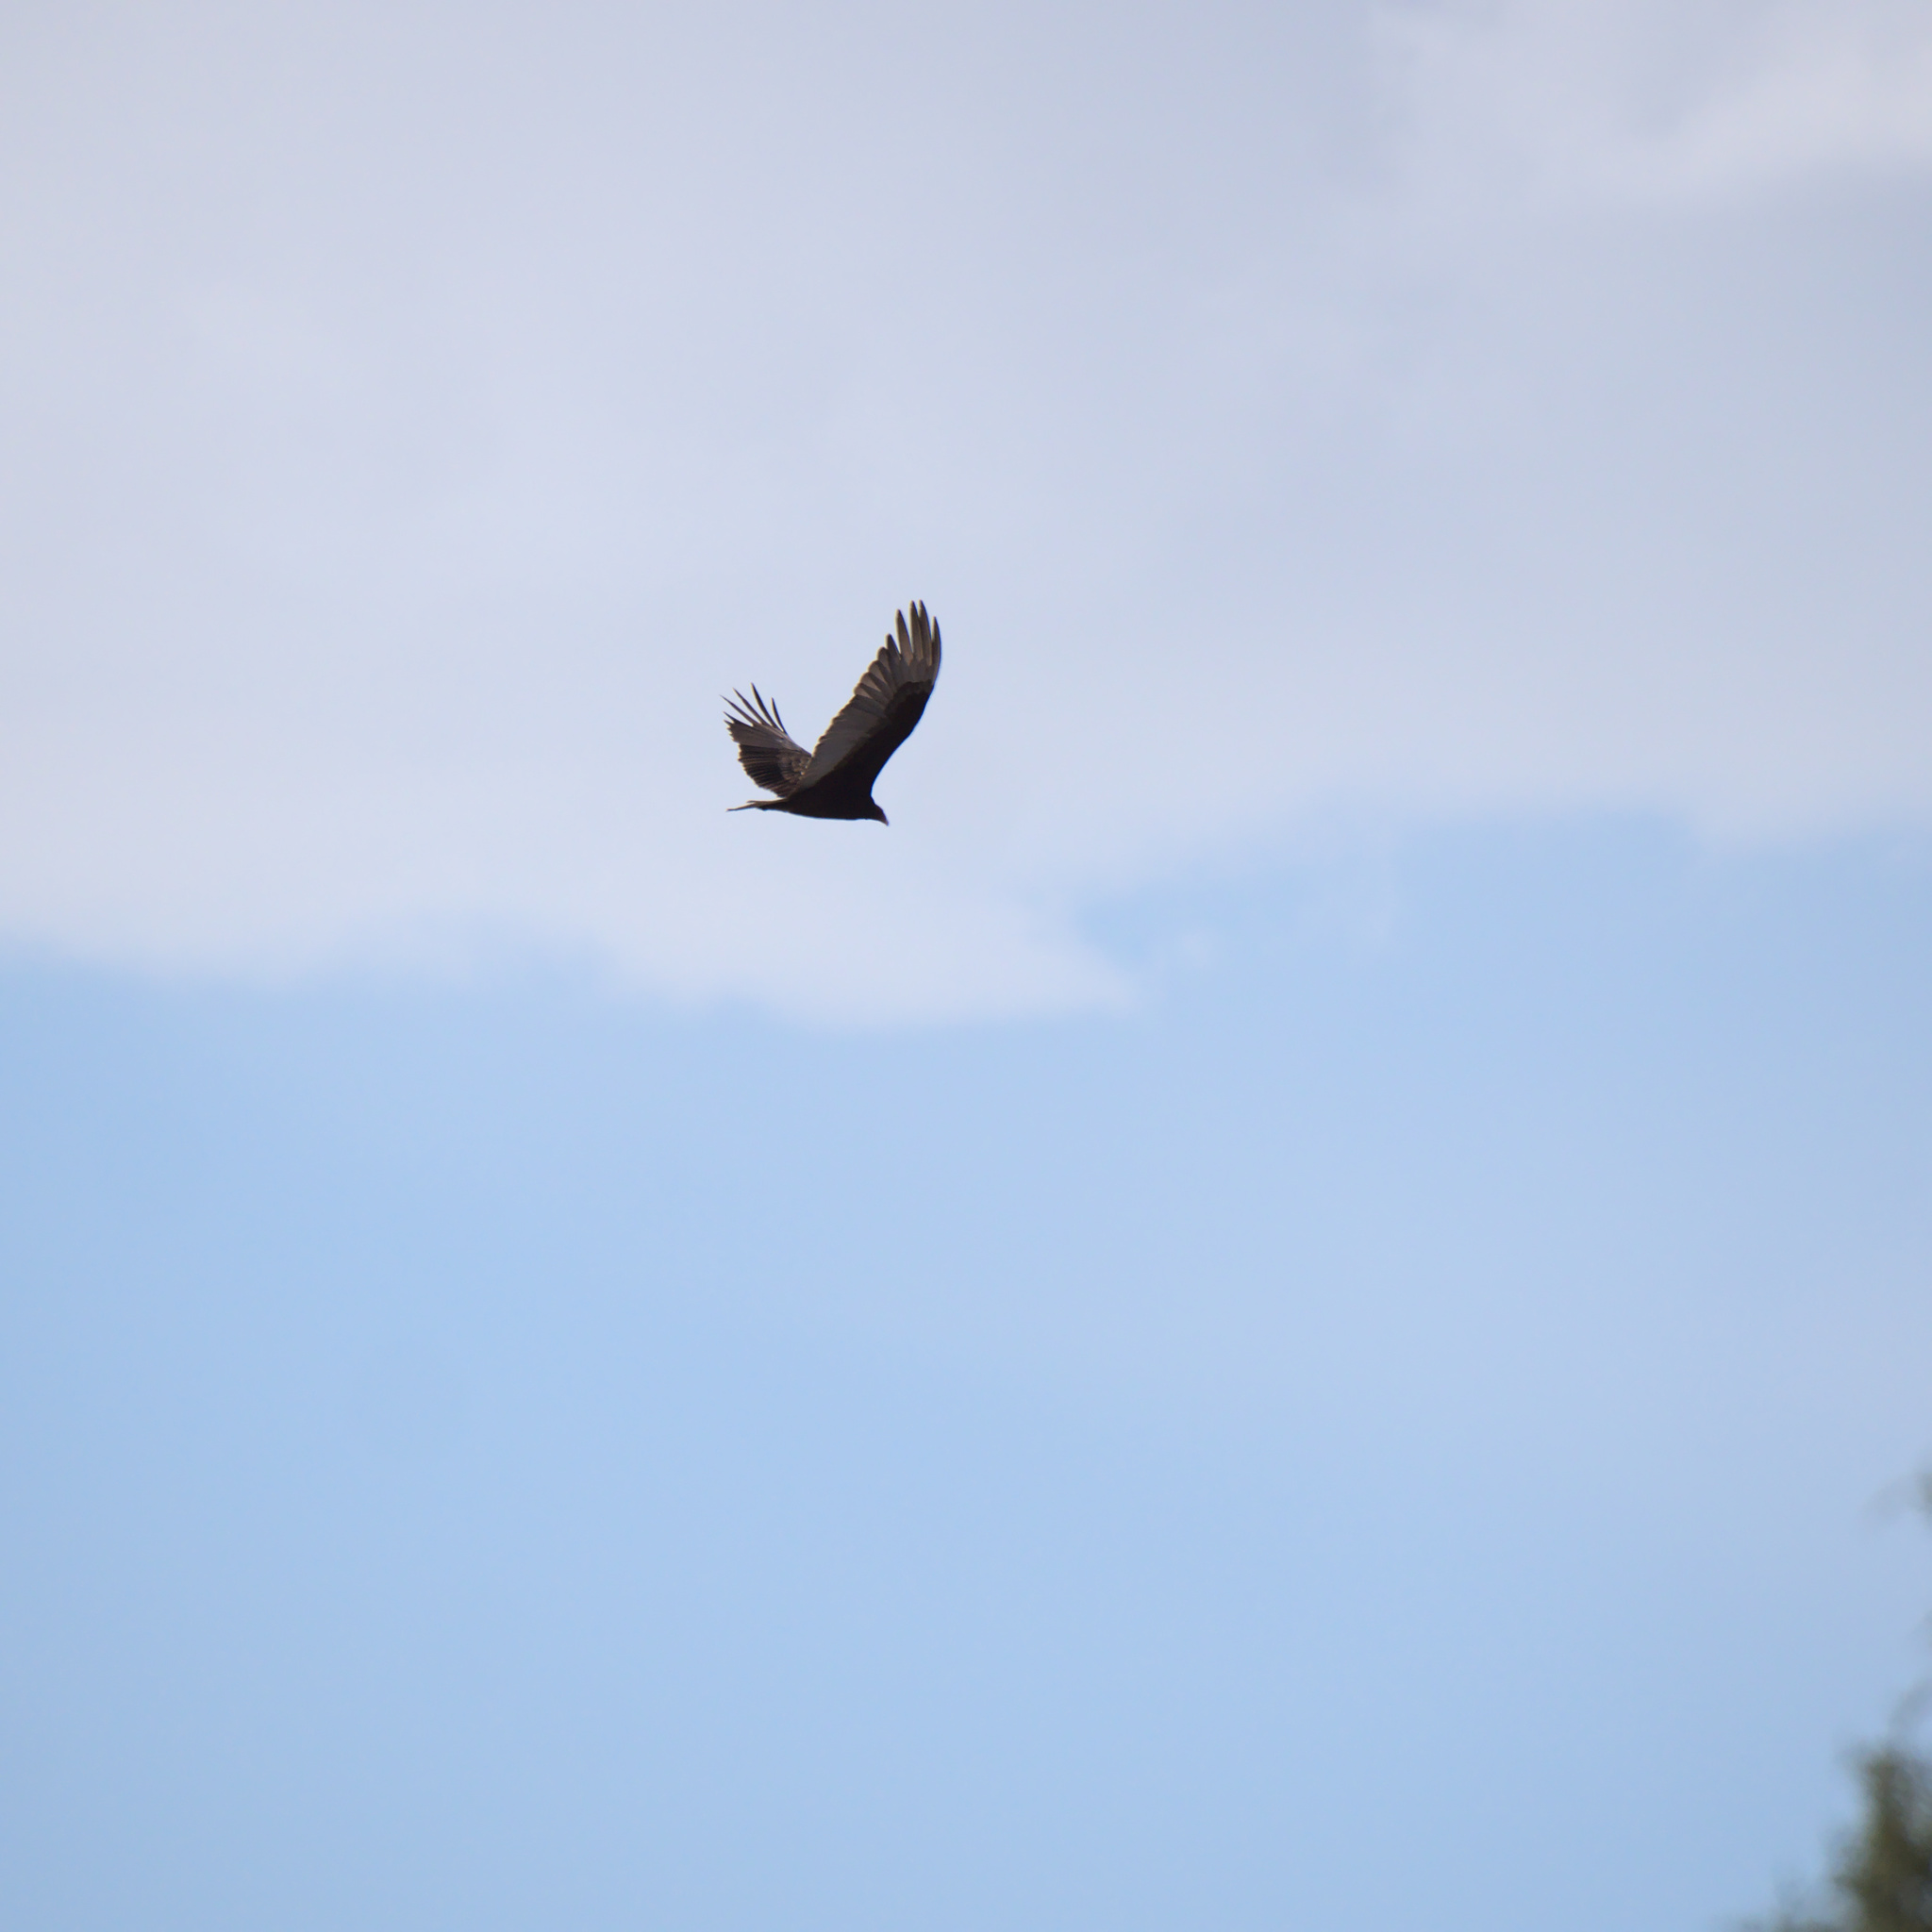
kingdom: Animalia
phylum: Chordata
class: Aves
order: Accipitriformes
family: Cathartidae
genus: Cathartes
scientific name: Cathartes aura
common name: Turkey vulture
